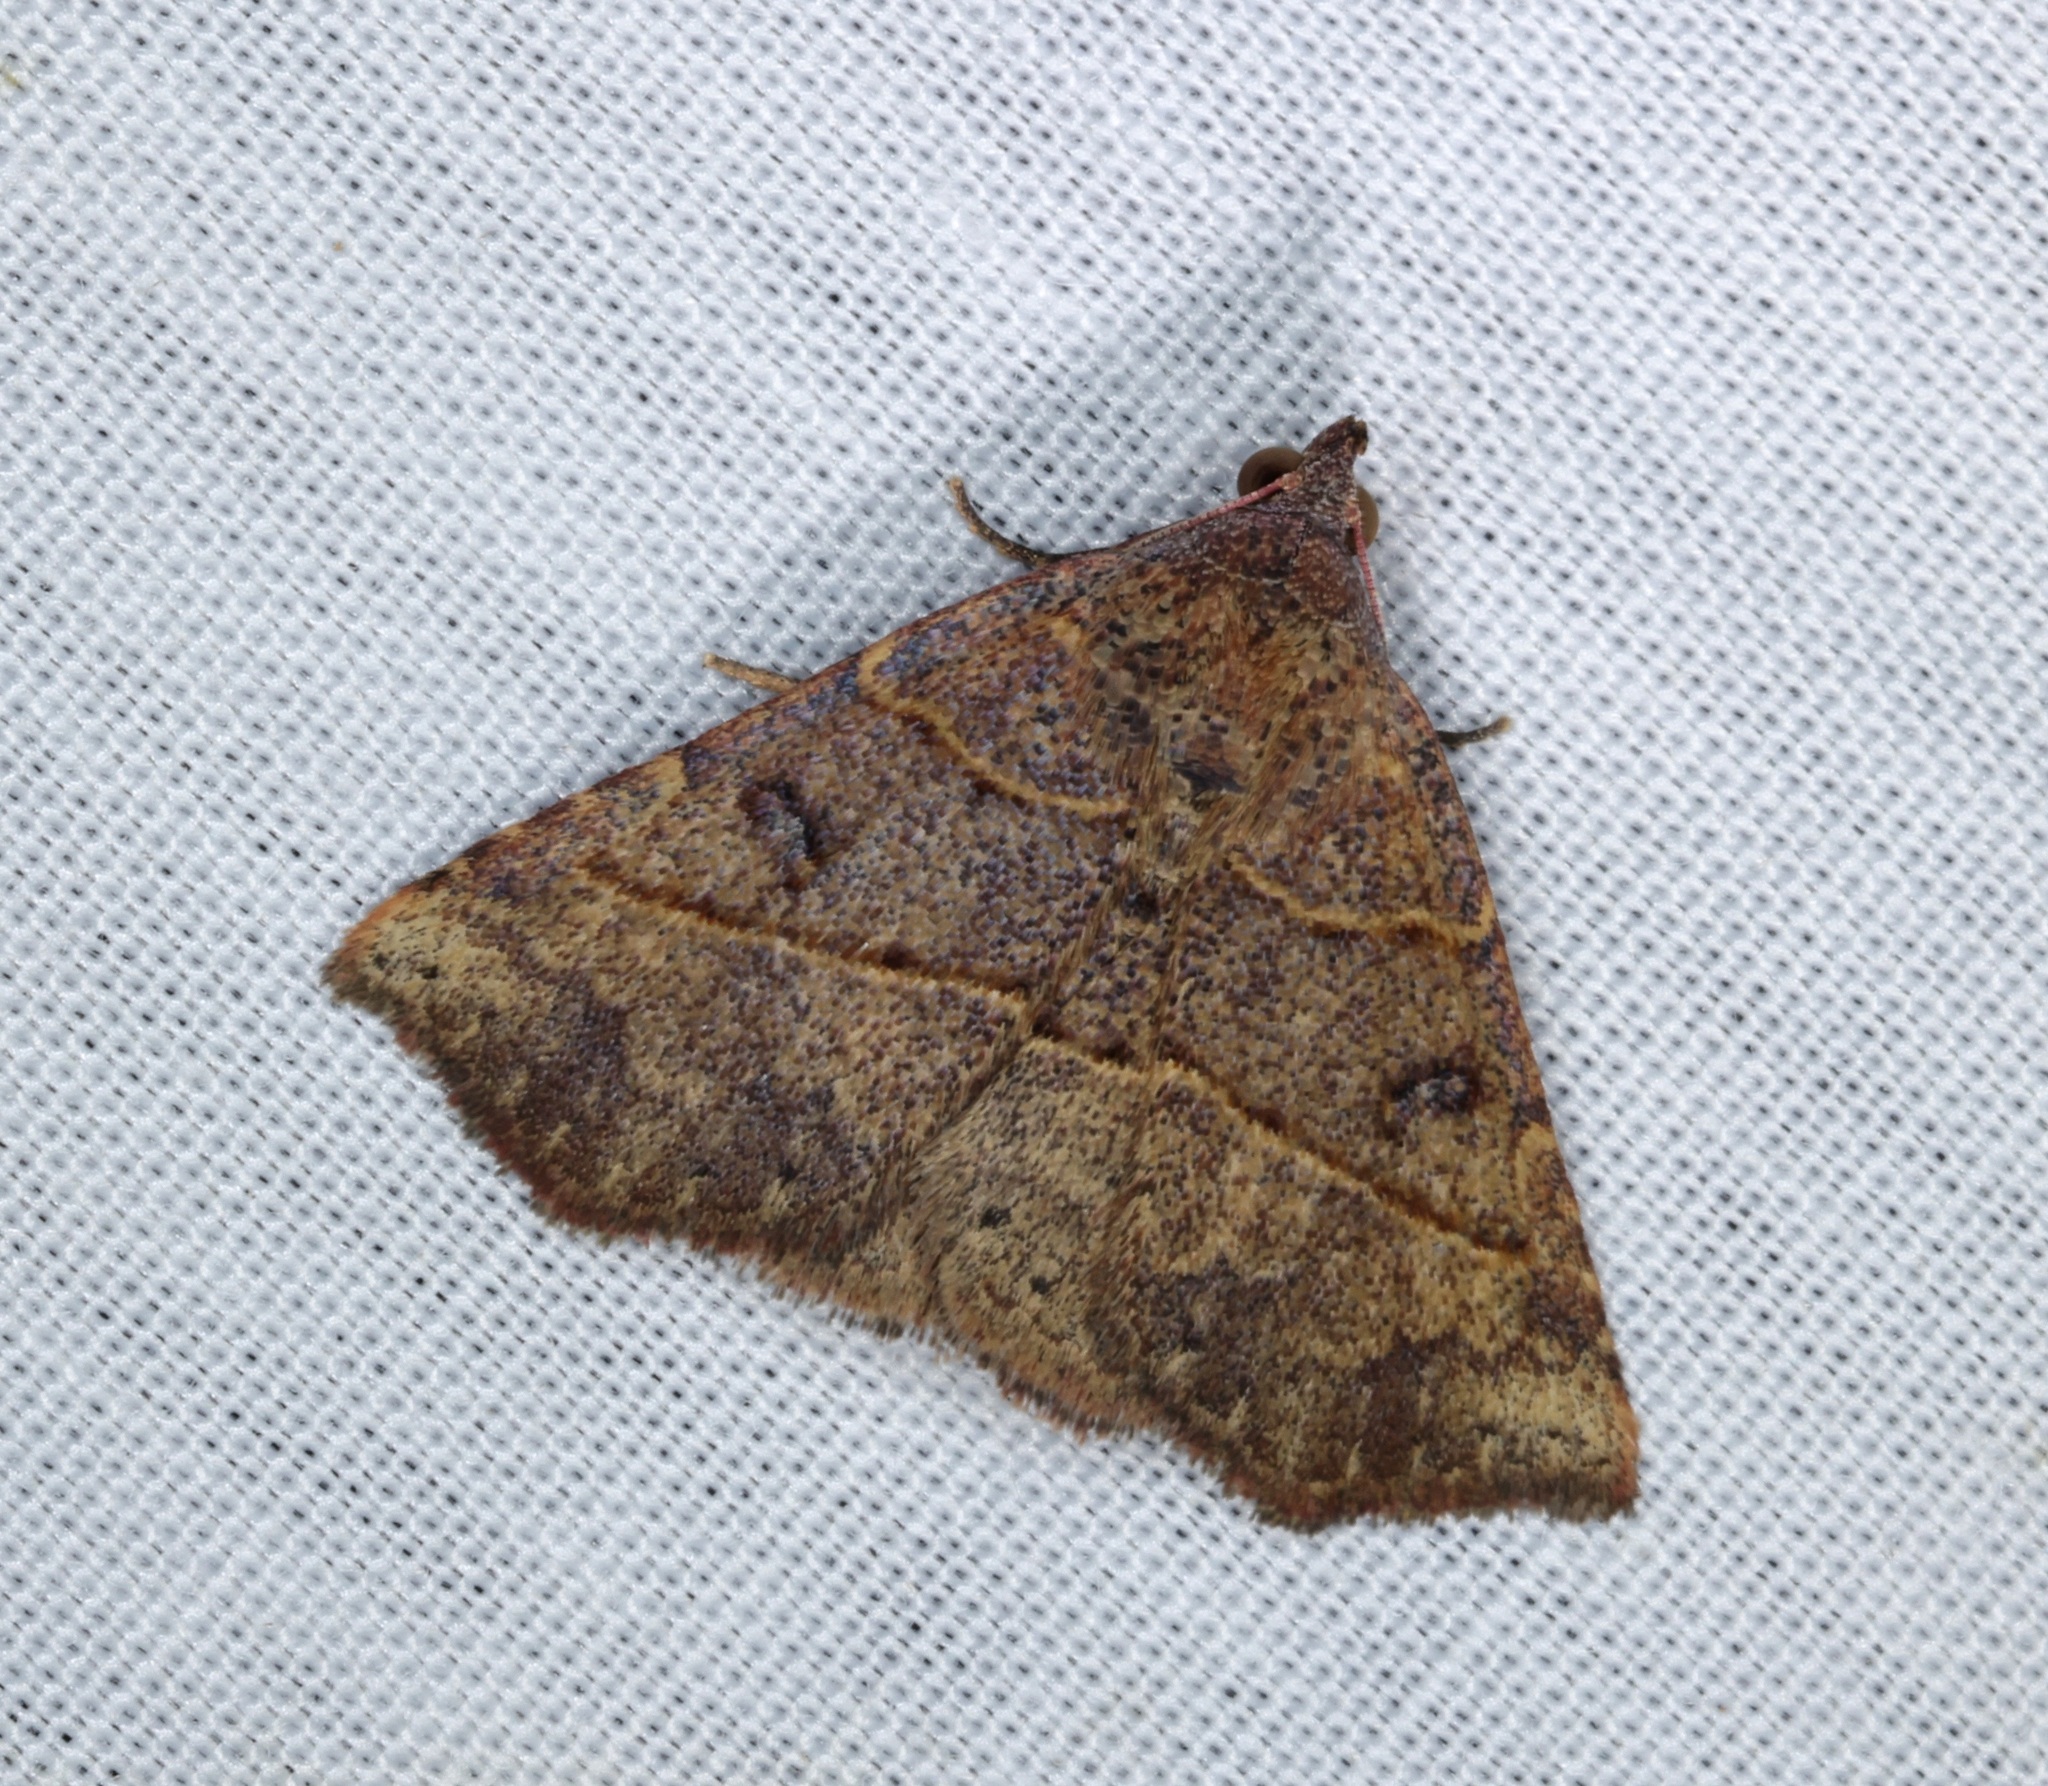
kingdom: Animalia
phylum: Arthropoda
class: Insecta
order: Lepidoptera
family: Erebidae
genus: Condate
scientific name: Condate hypenoides
